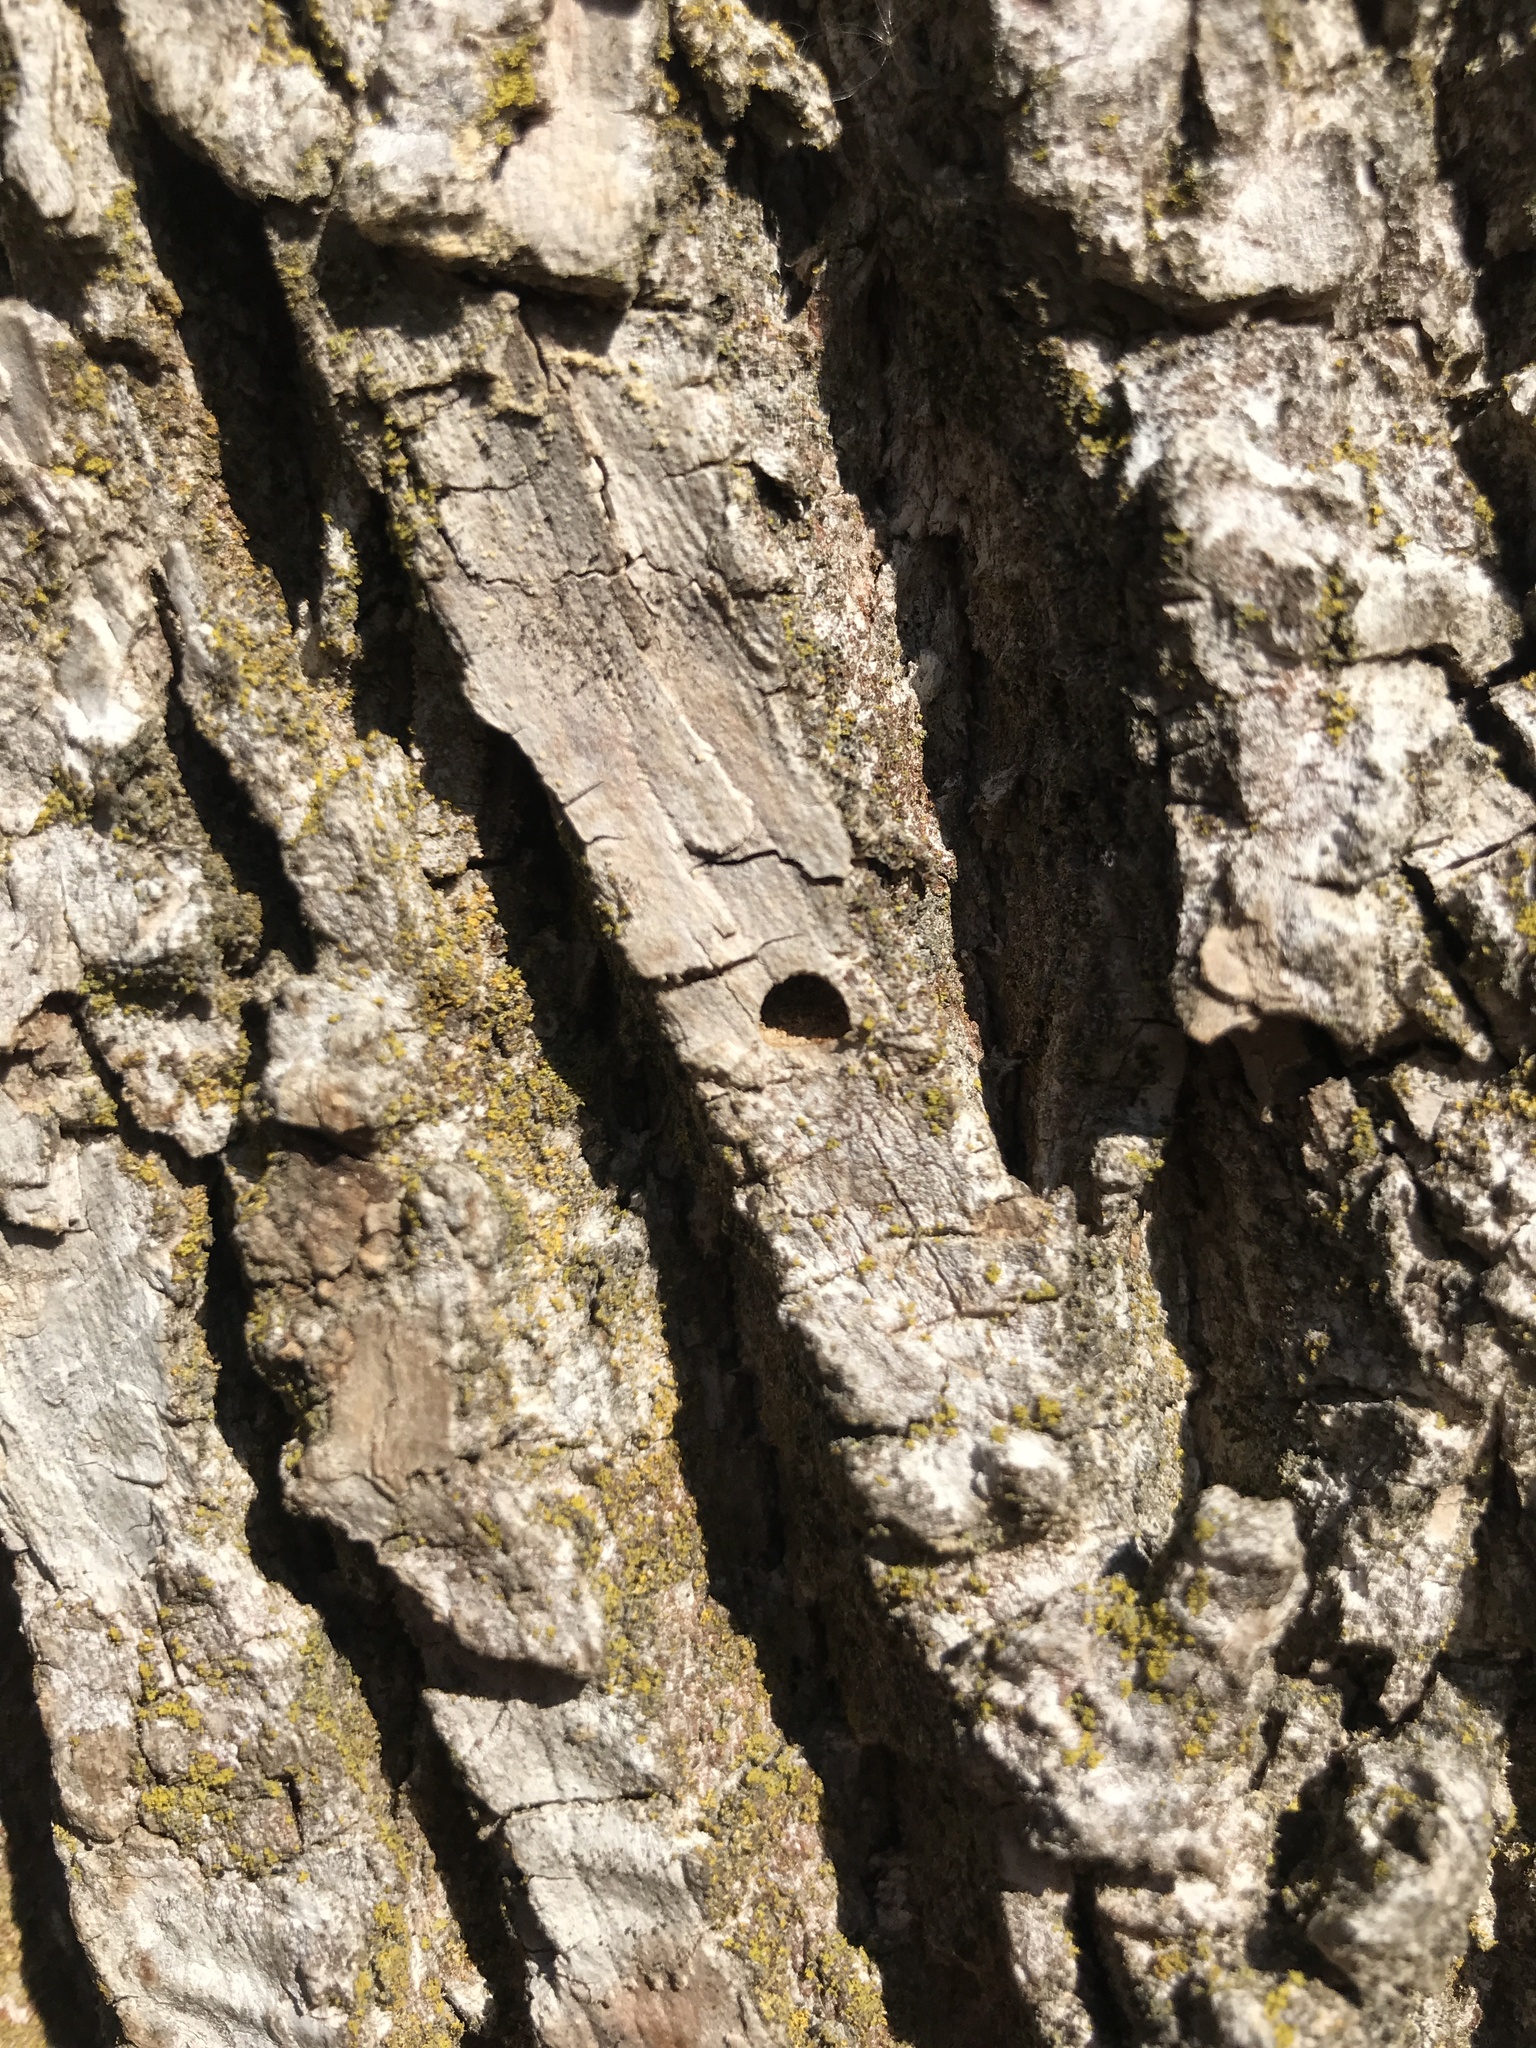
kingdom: Animalia
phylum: Arthropoda
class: Insecta
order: Coleoptera
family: Buprestidae
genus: Agrilus
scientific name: Agrilus planipennis
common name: Emerald ash borer
